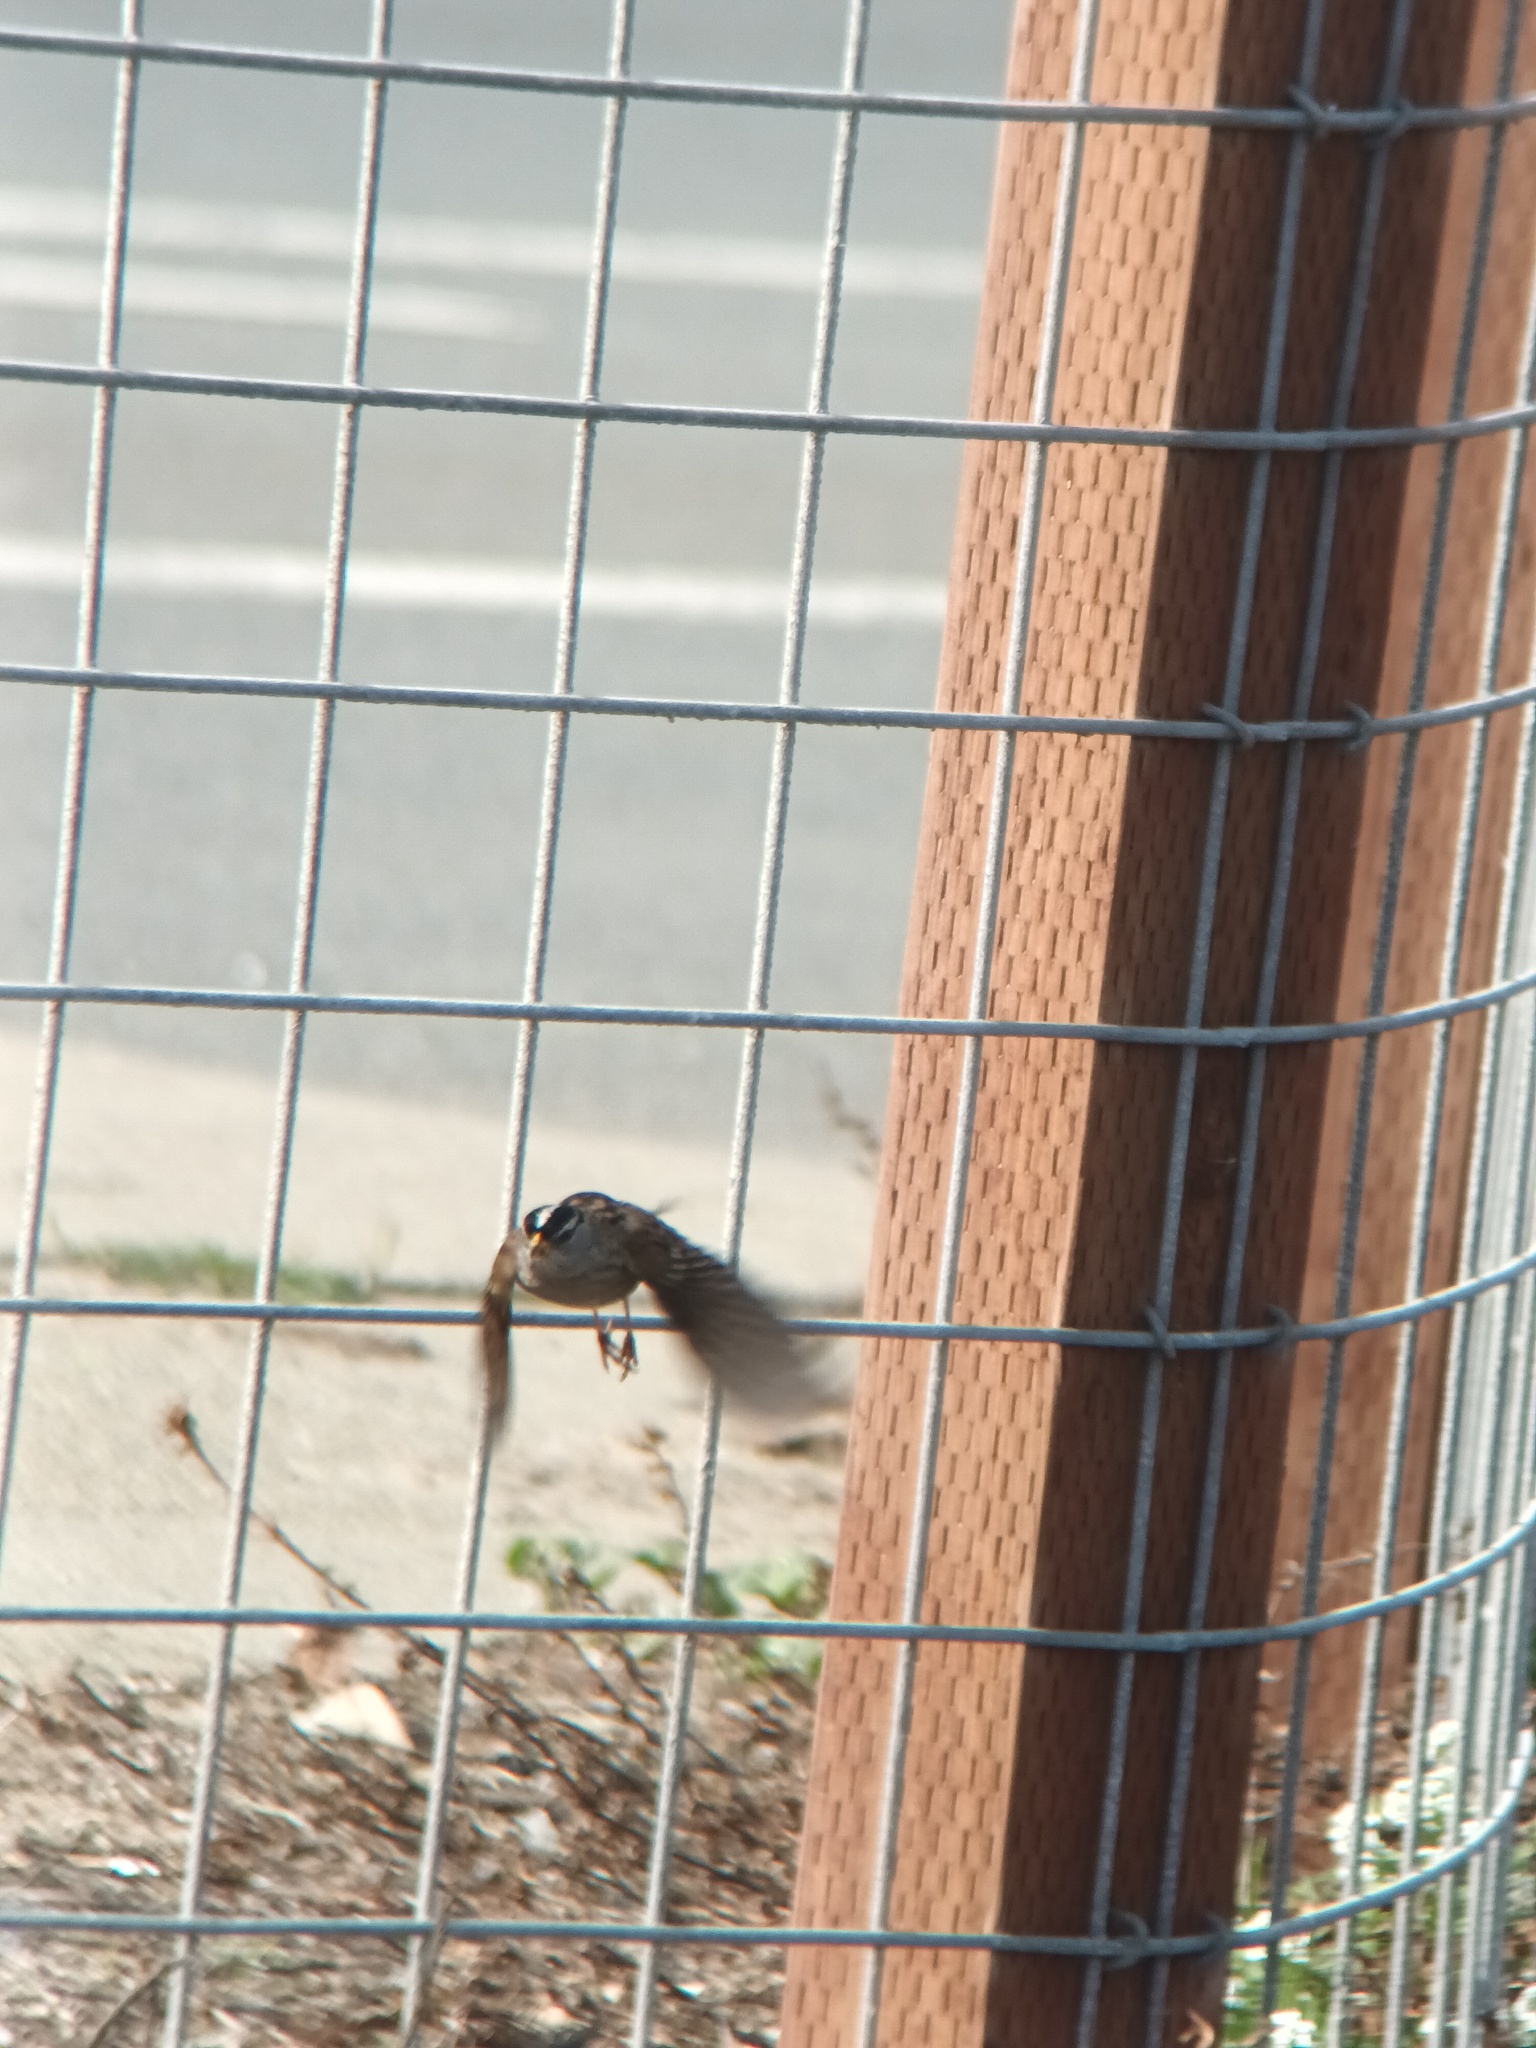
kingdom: Animalia
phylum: Chordata
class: Aves
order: Passeriformes
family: Passerellidae
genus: Zonotrichia
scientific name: Zonotrichia leucophrys
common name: White-crowned sparrow
